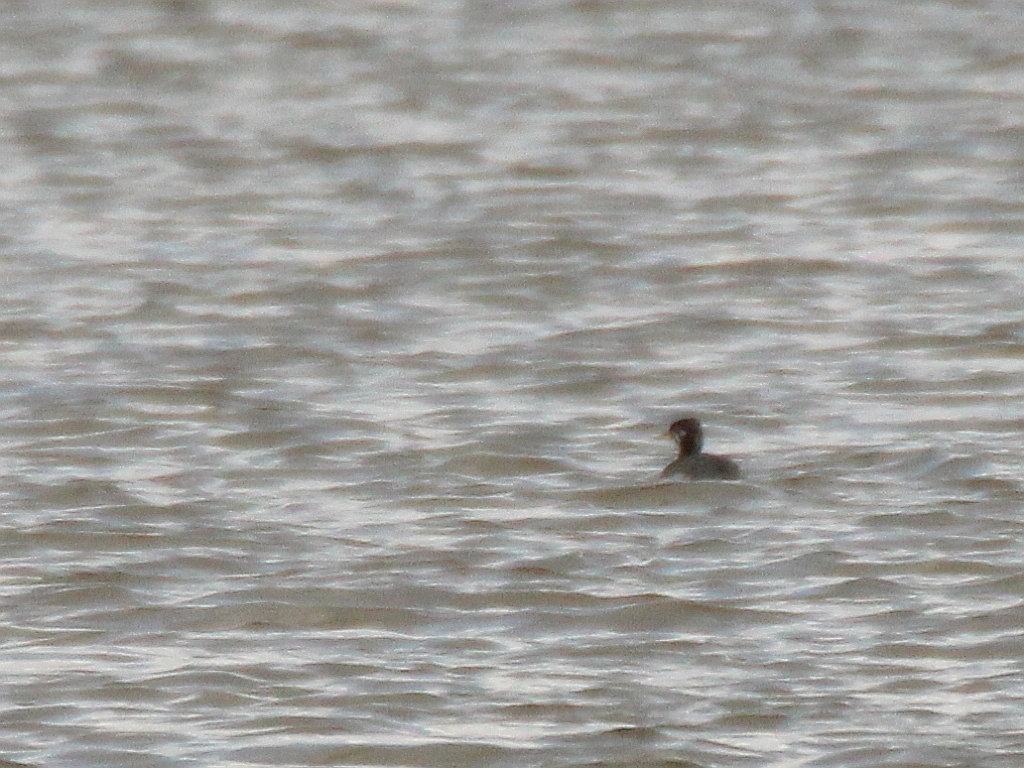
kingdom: Animalia
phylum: Chordata
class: Aves
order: Podicipediformes
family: Podicipedidae
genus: Podiceps
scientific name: Podiceps grisegena
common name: Red-necked grebe
